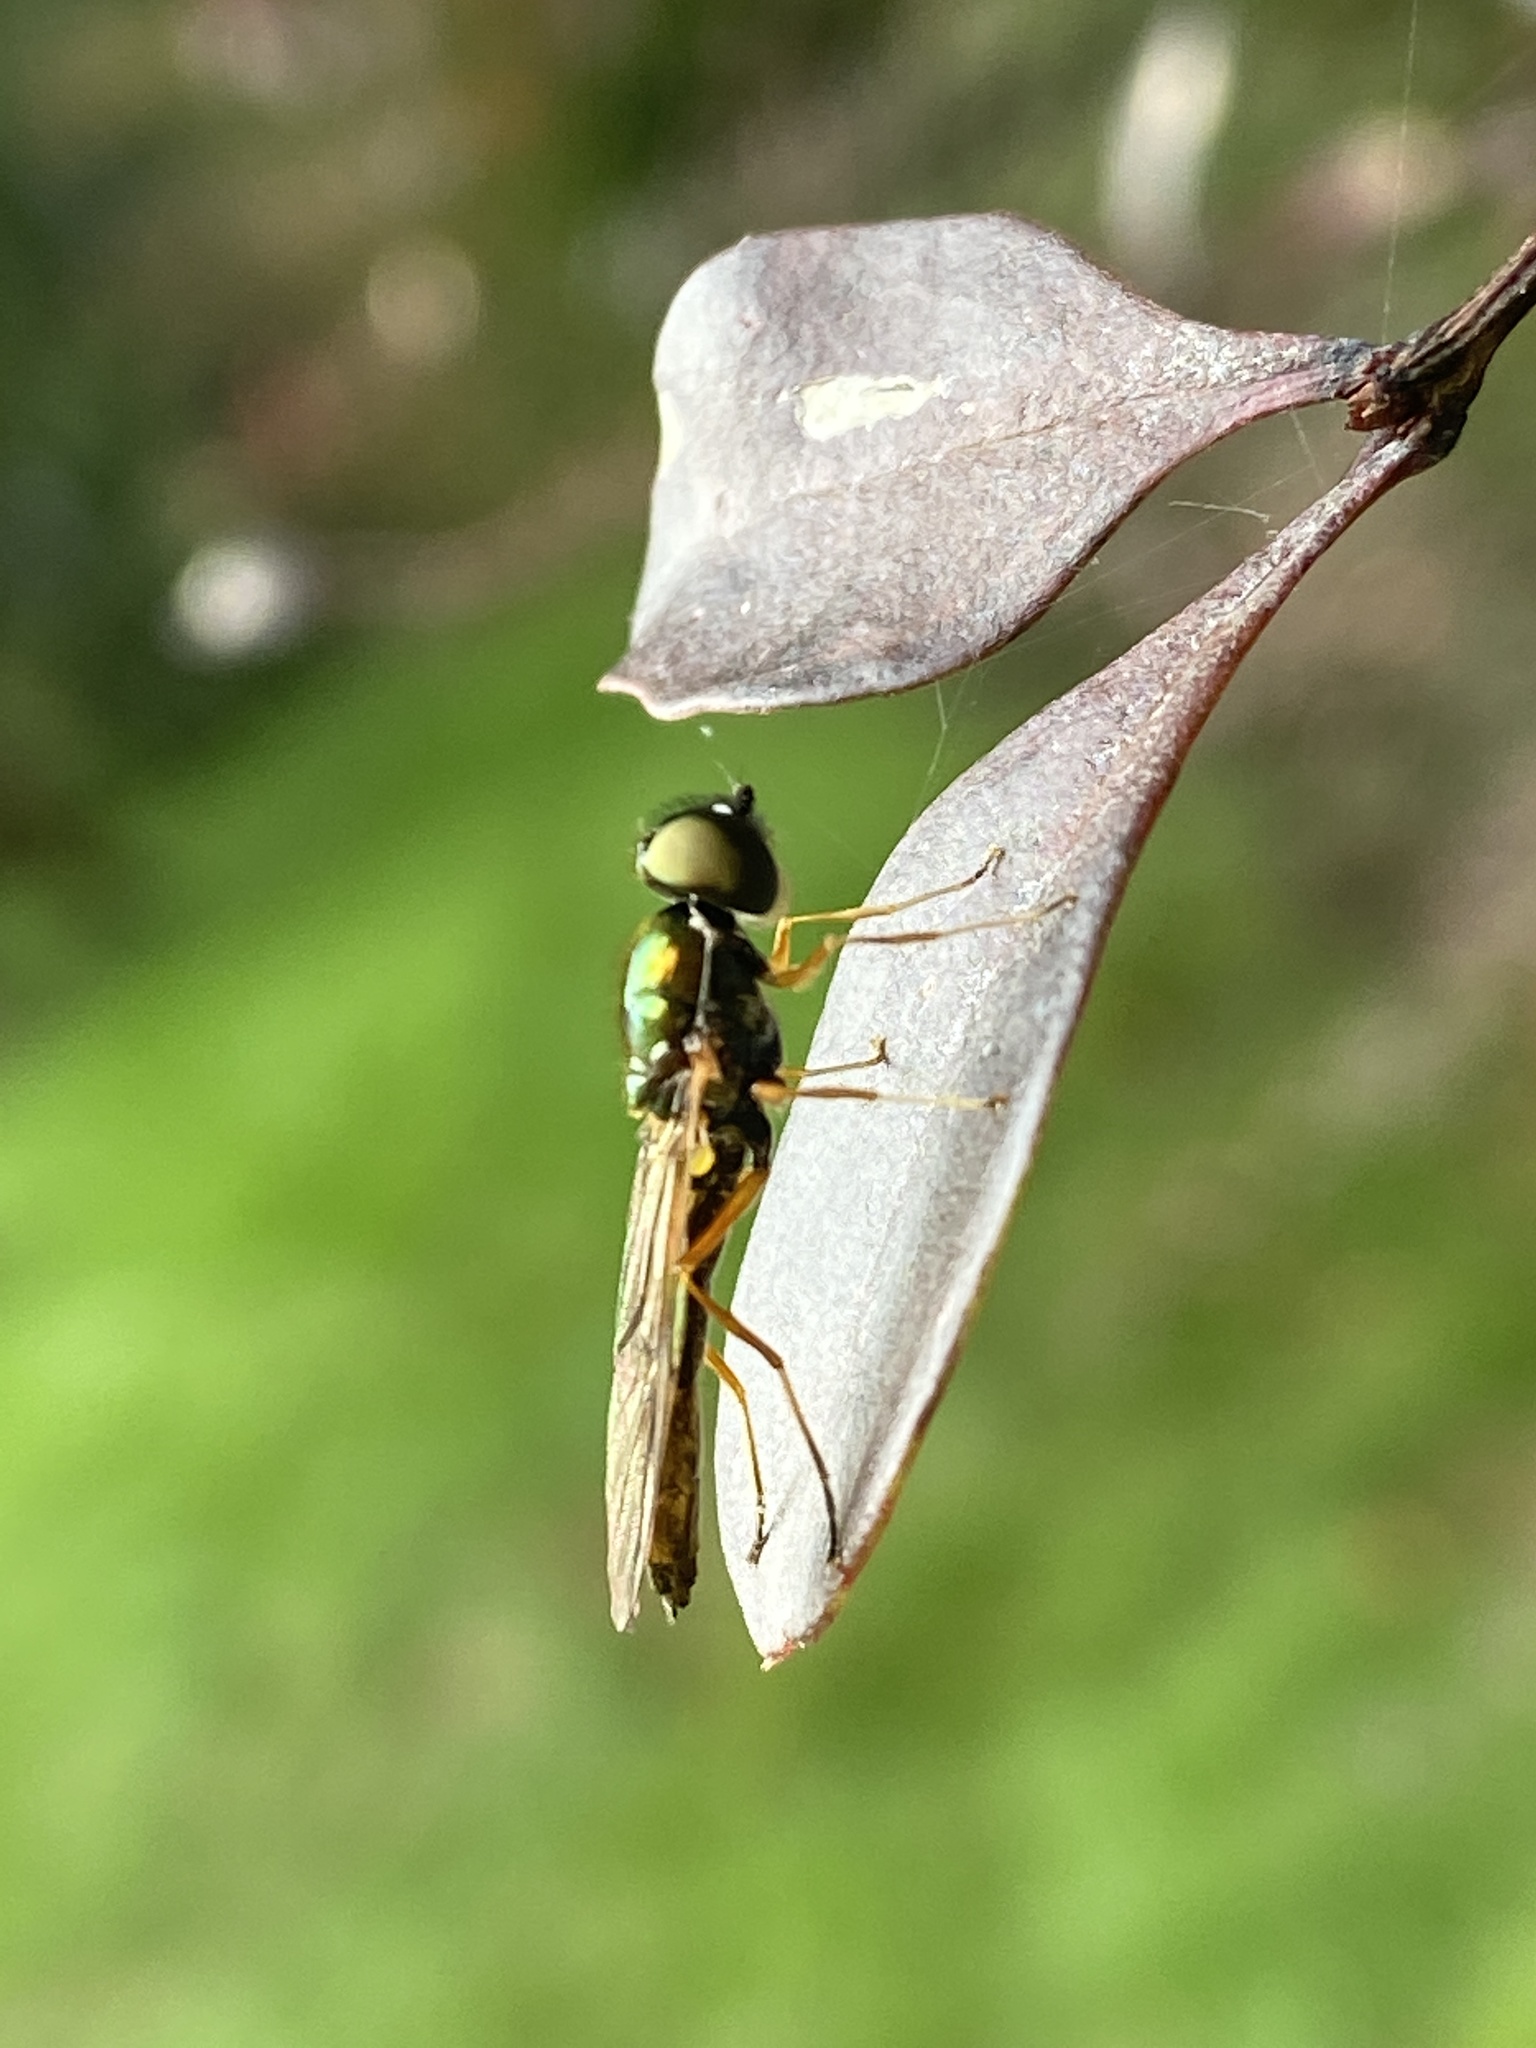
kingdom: Animalia
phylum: Arthropoda
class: Insecta
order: Diptera
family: Stratiomyidae
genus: Sargus
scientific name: Sargus bipunctatus
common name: Twin-spot centurion
